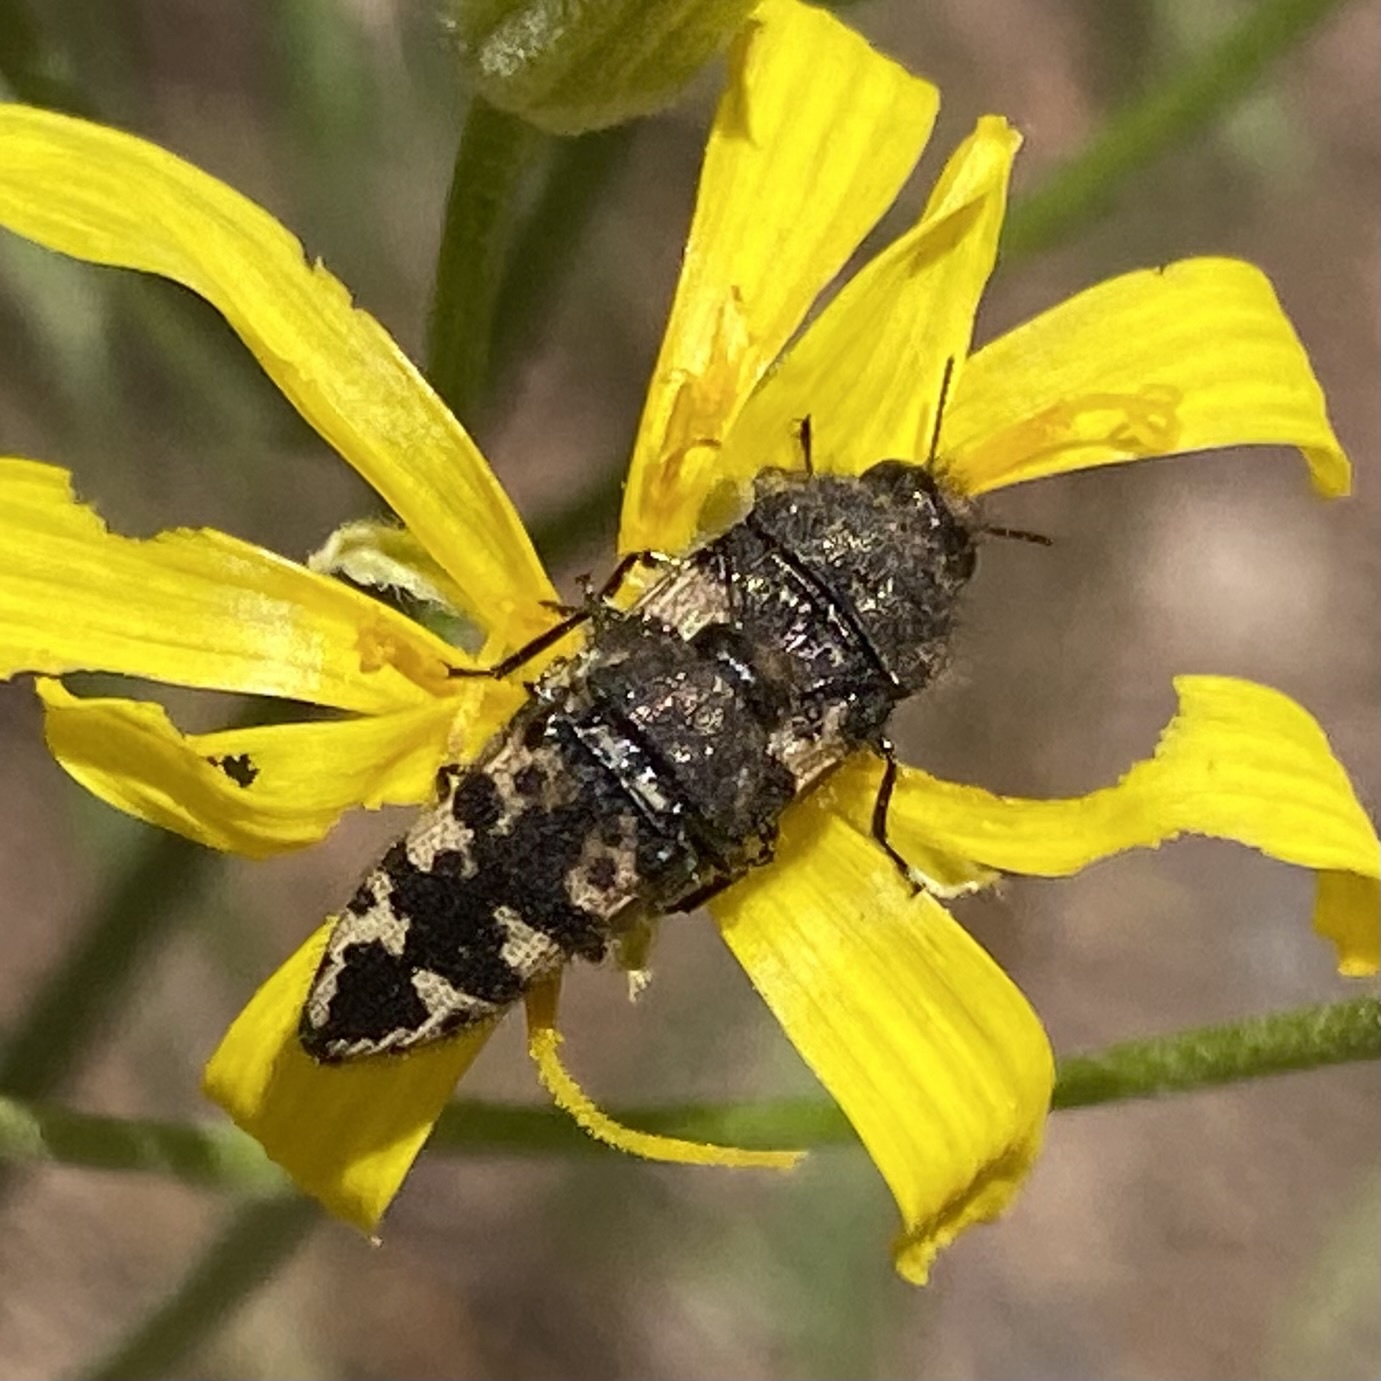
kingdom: Animalia
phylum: Arthropoda
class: Insecta
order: Coleoptera
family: Buprestidae
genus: Acmaeodera
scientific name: Acmaeodera diffusa
